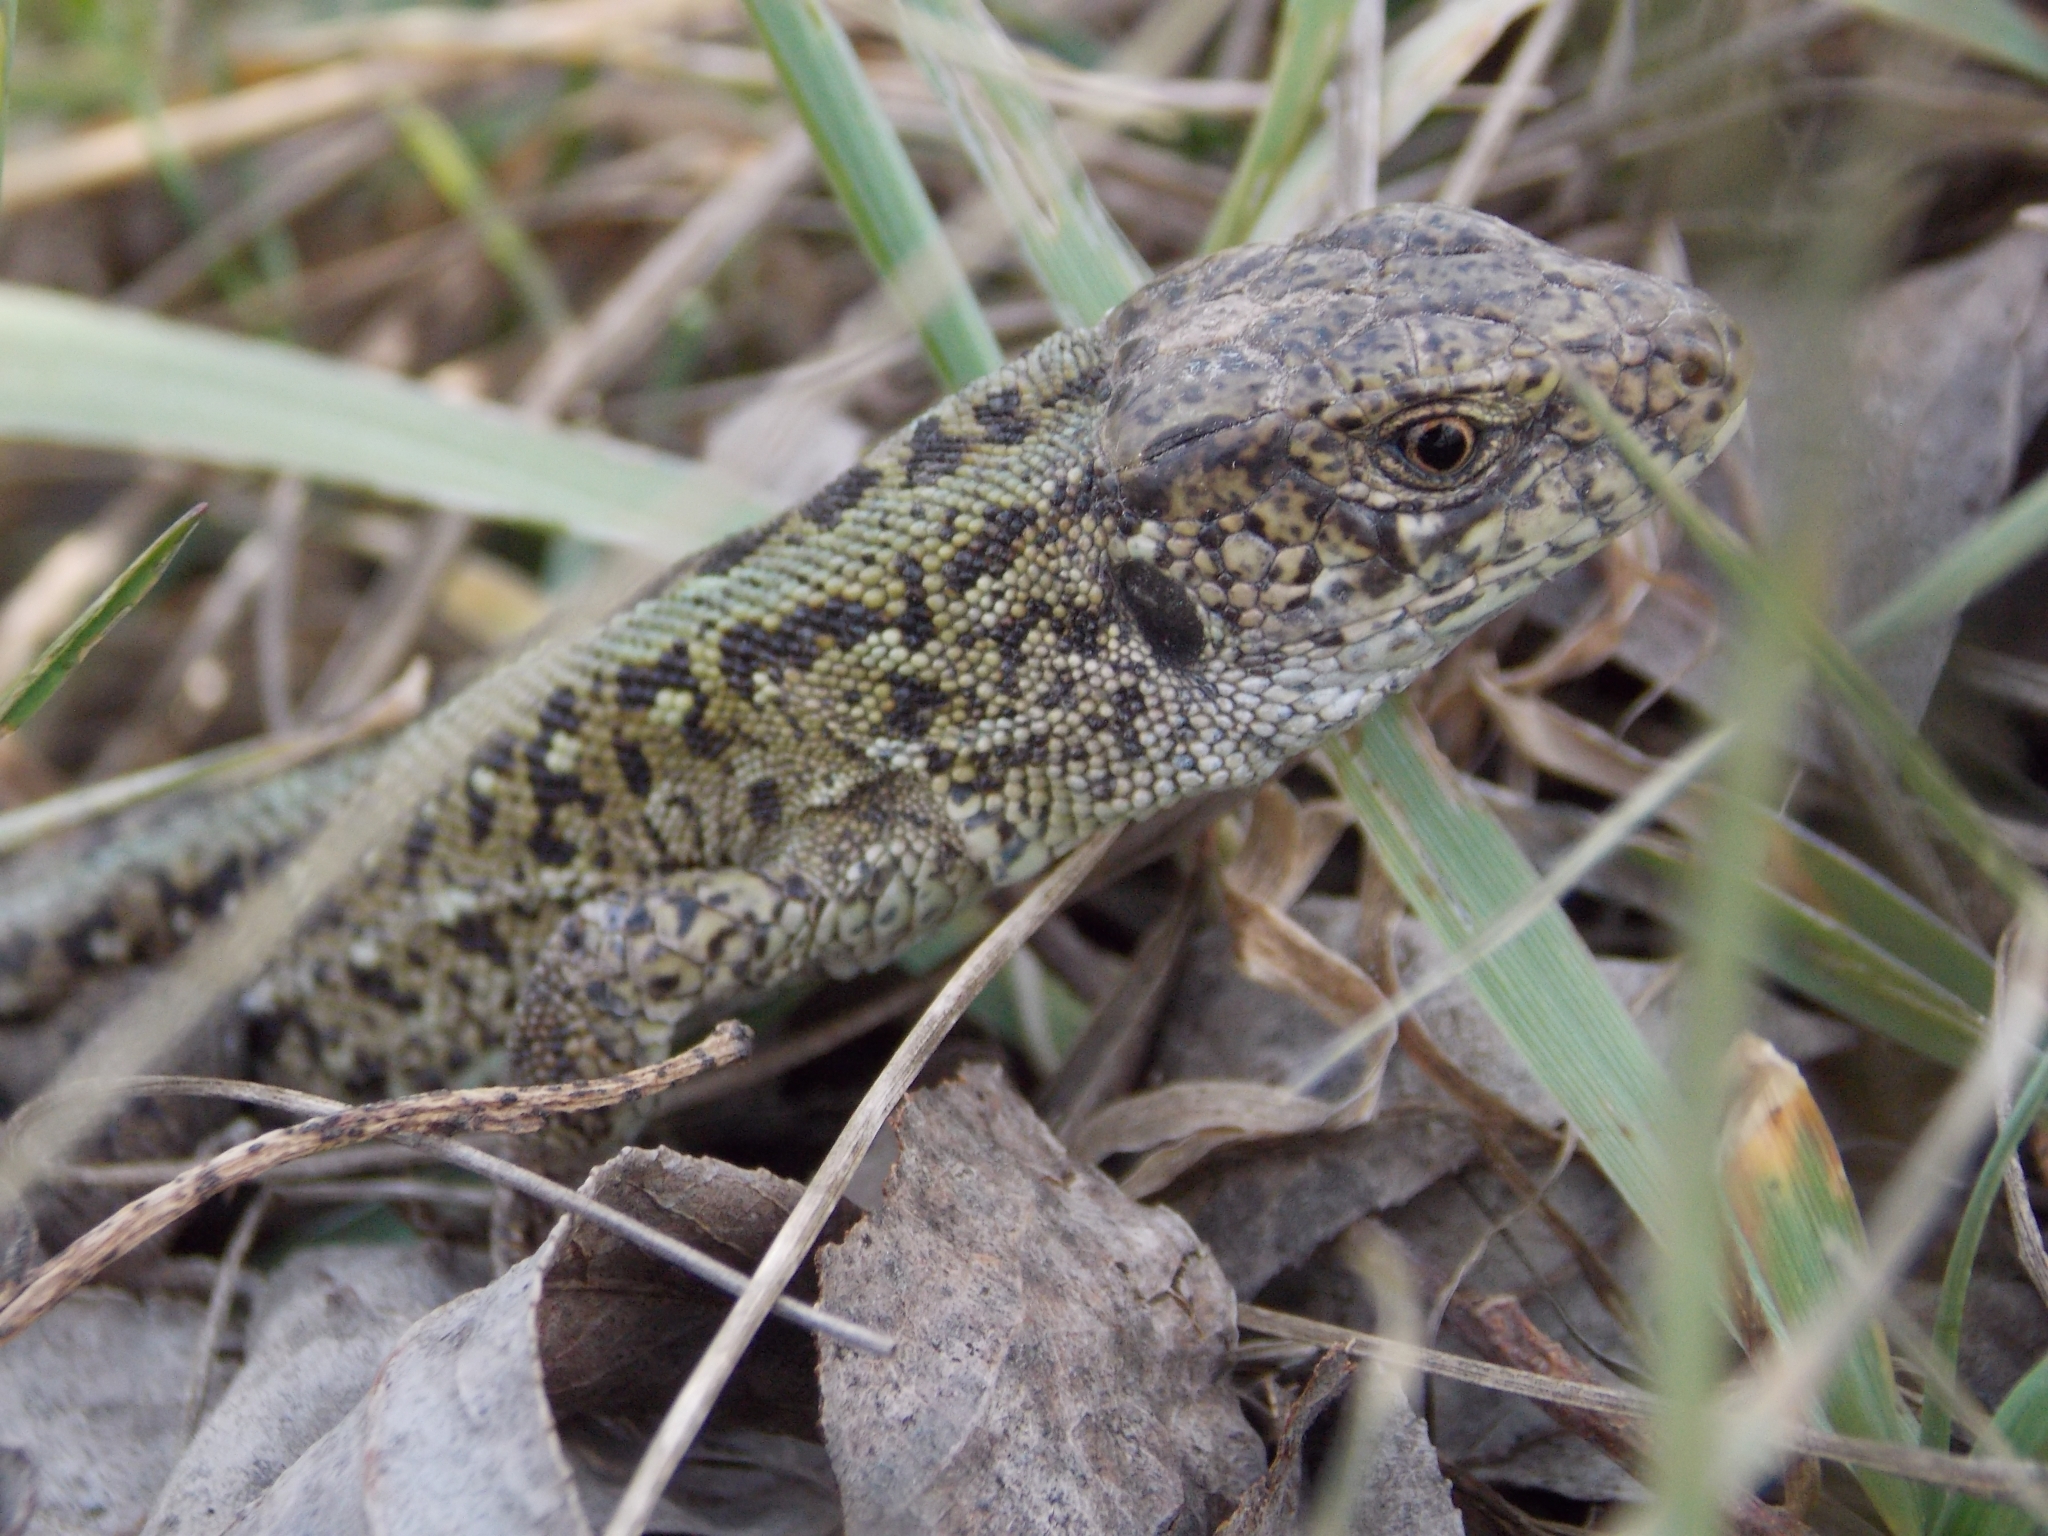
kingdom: Animalia
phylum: Chordata
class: Squamata
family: Lacertidae
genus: Lacerta
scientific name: Lacerta agilis
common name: Sand lizard
